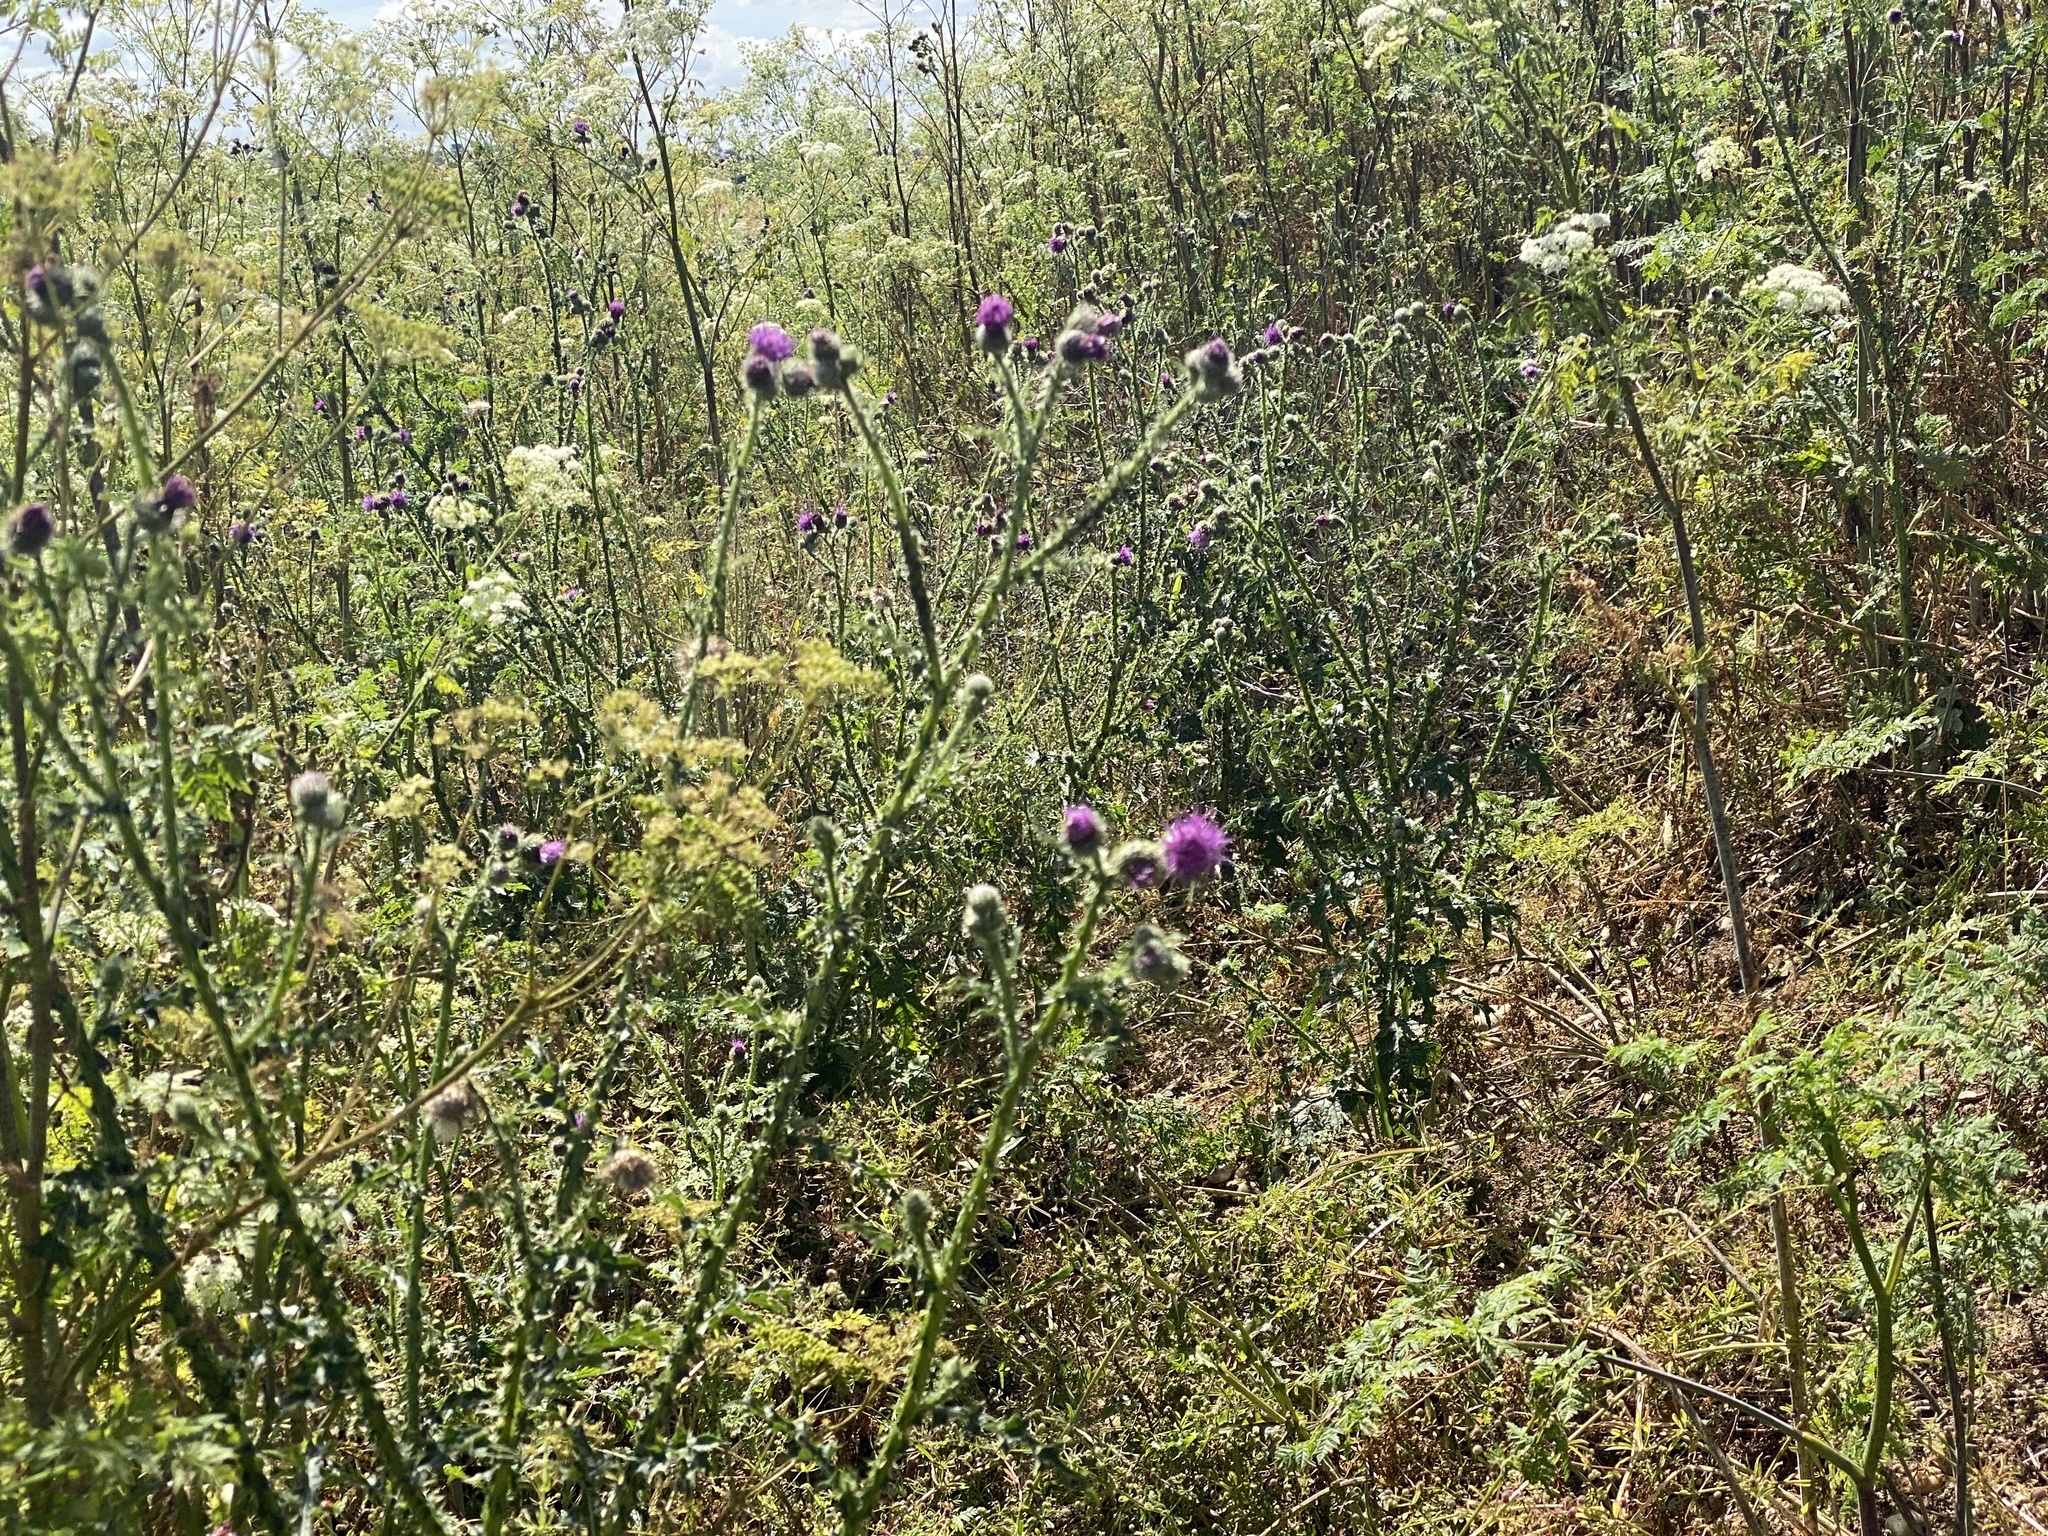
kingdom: Plantae
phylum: Tracheophyta
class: Magnoliopsida
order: Asterales
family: Asteraceae
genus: Carduus
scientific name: Carduus crispus
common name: Welted thistle
